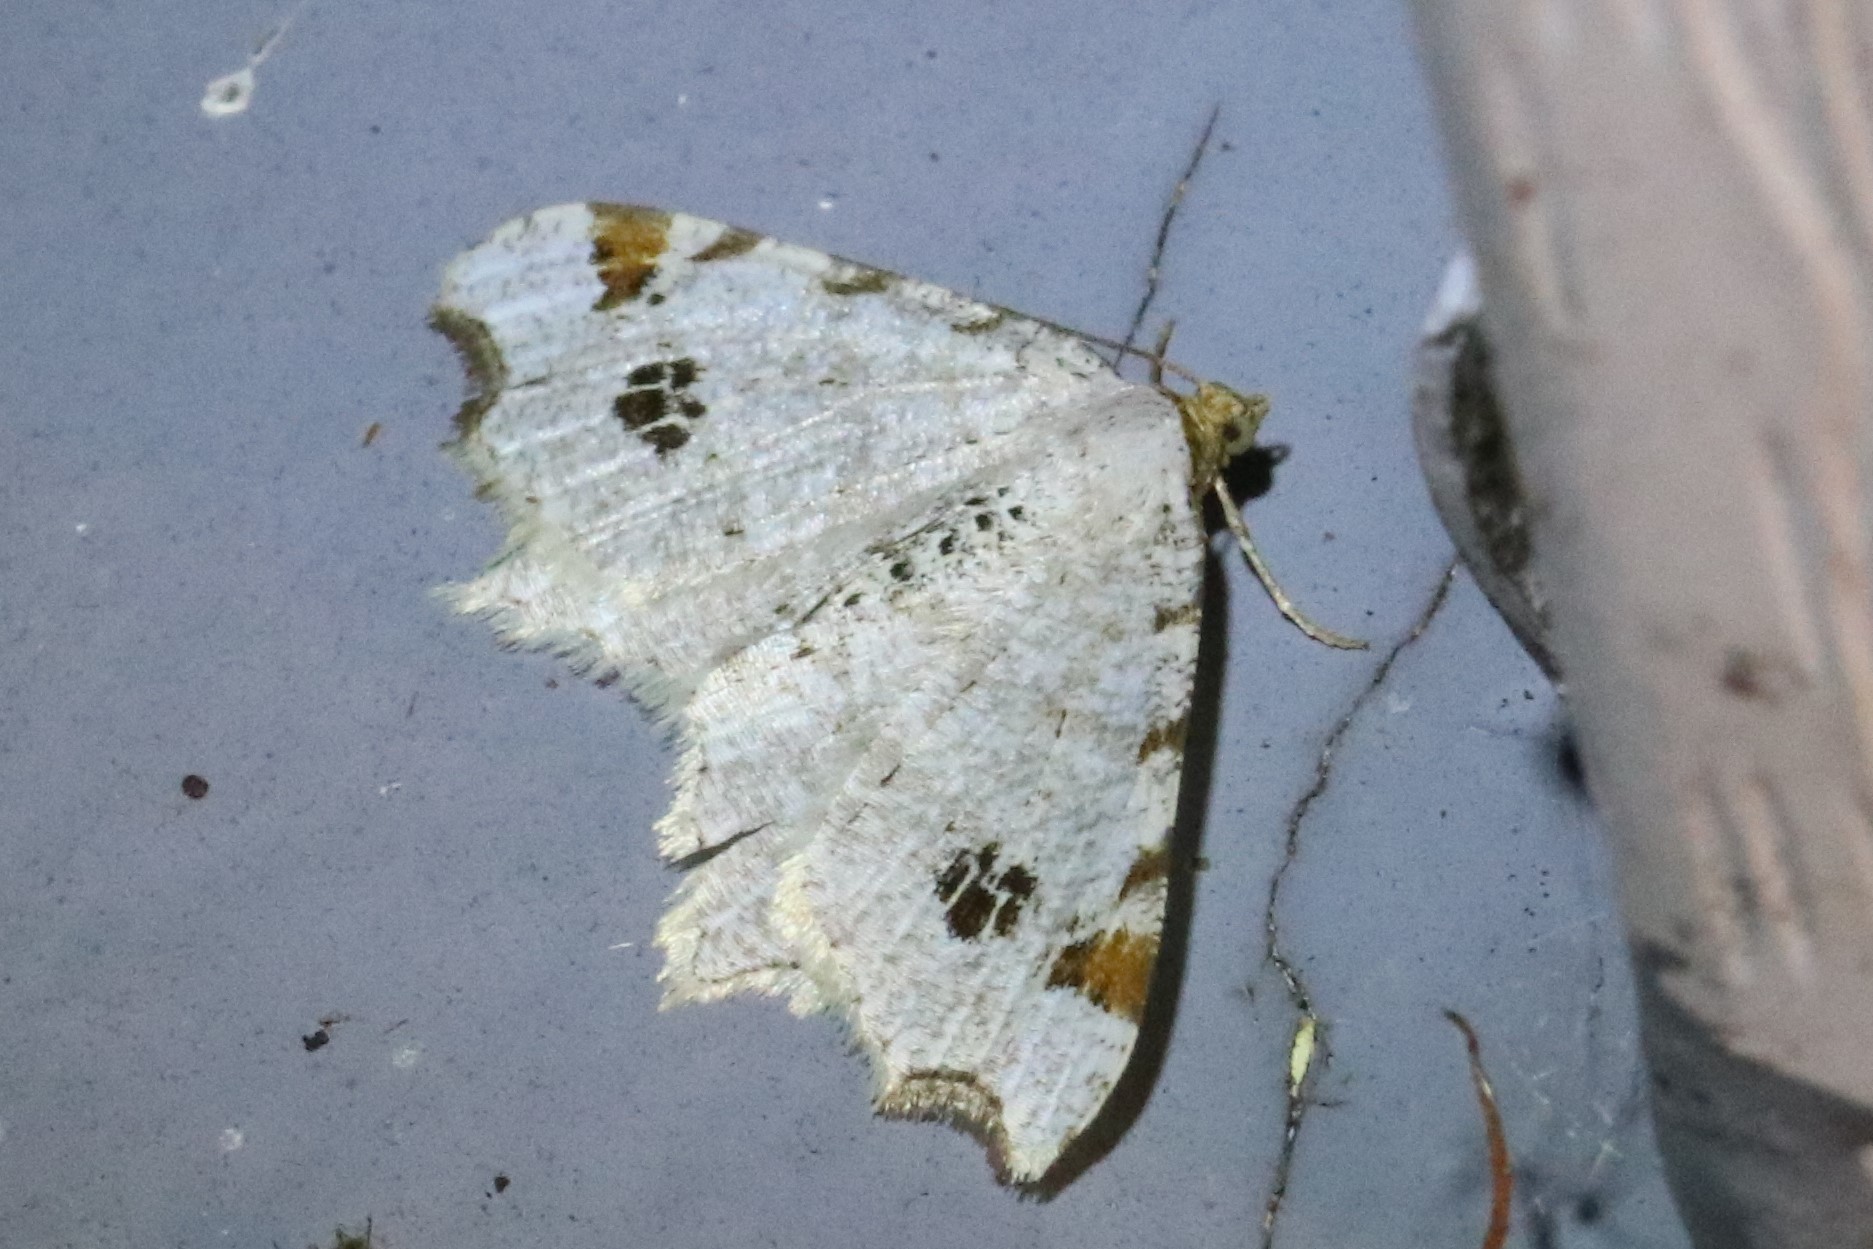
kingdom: Animalia
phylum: Arthropoda
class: Insecta
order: Lepidoptera
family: Geometridae
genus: Macaria
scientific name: Macaria ulsterata
